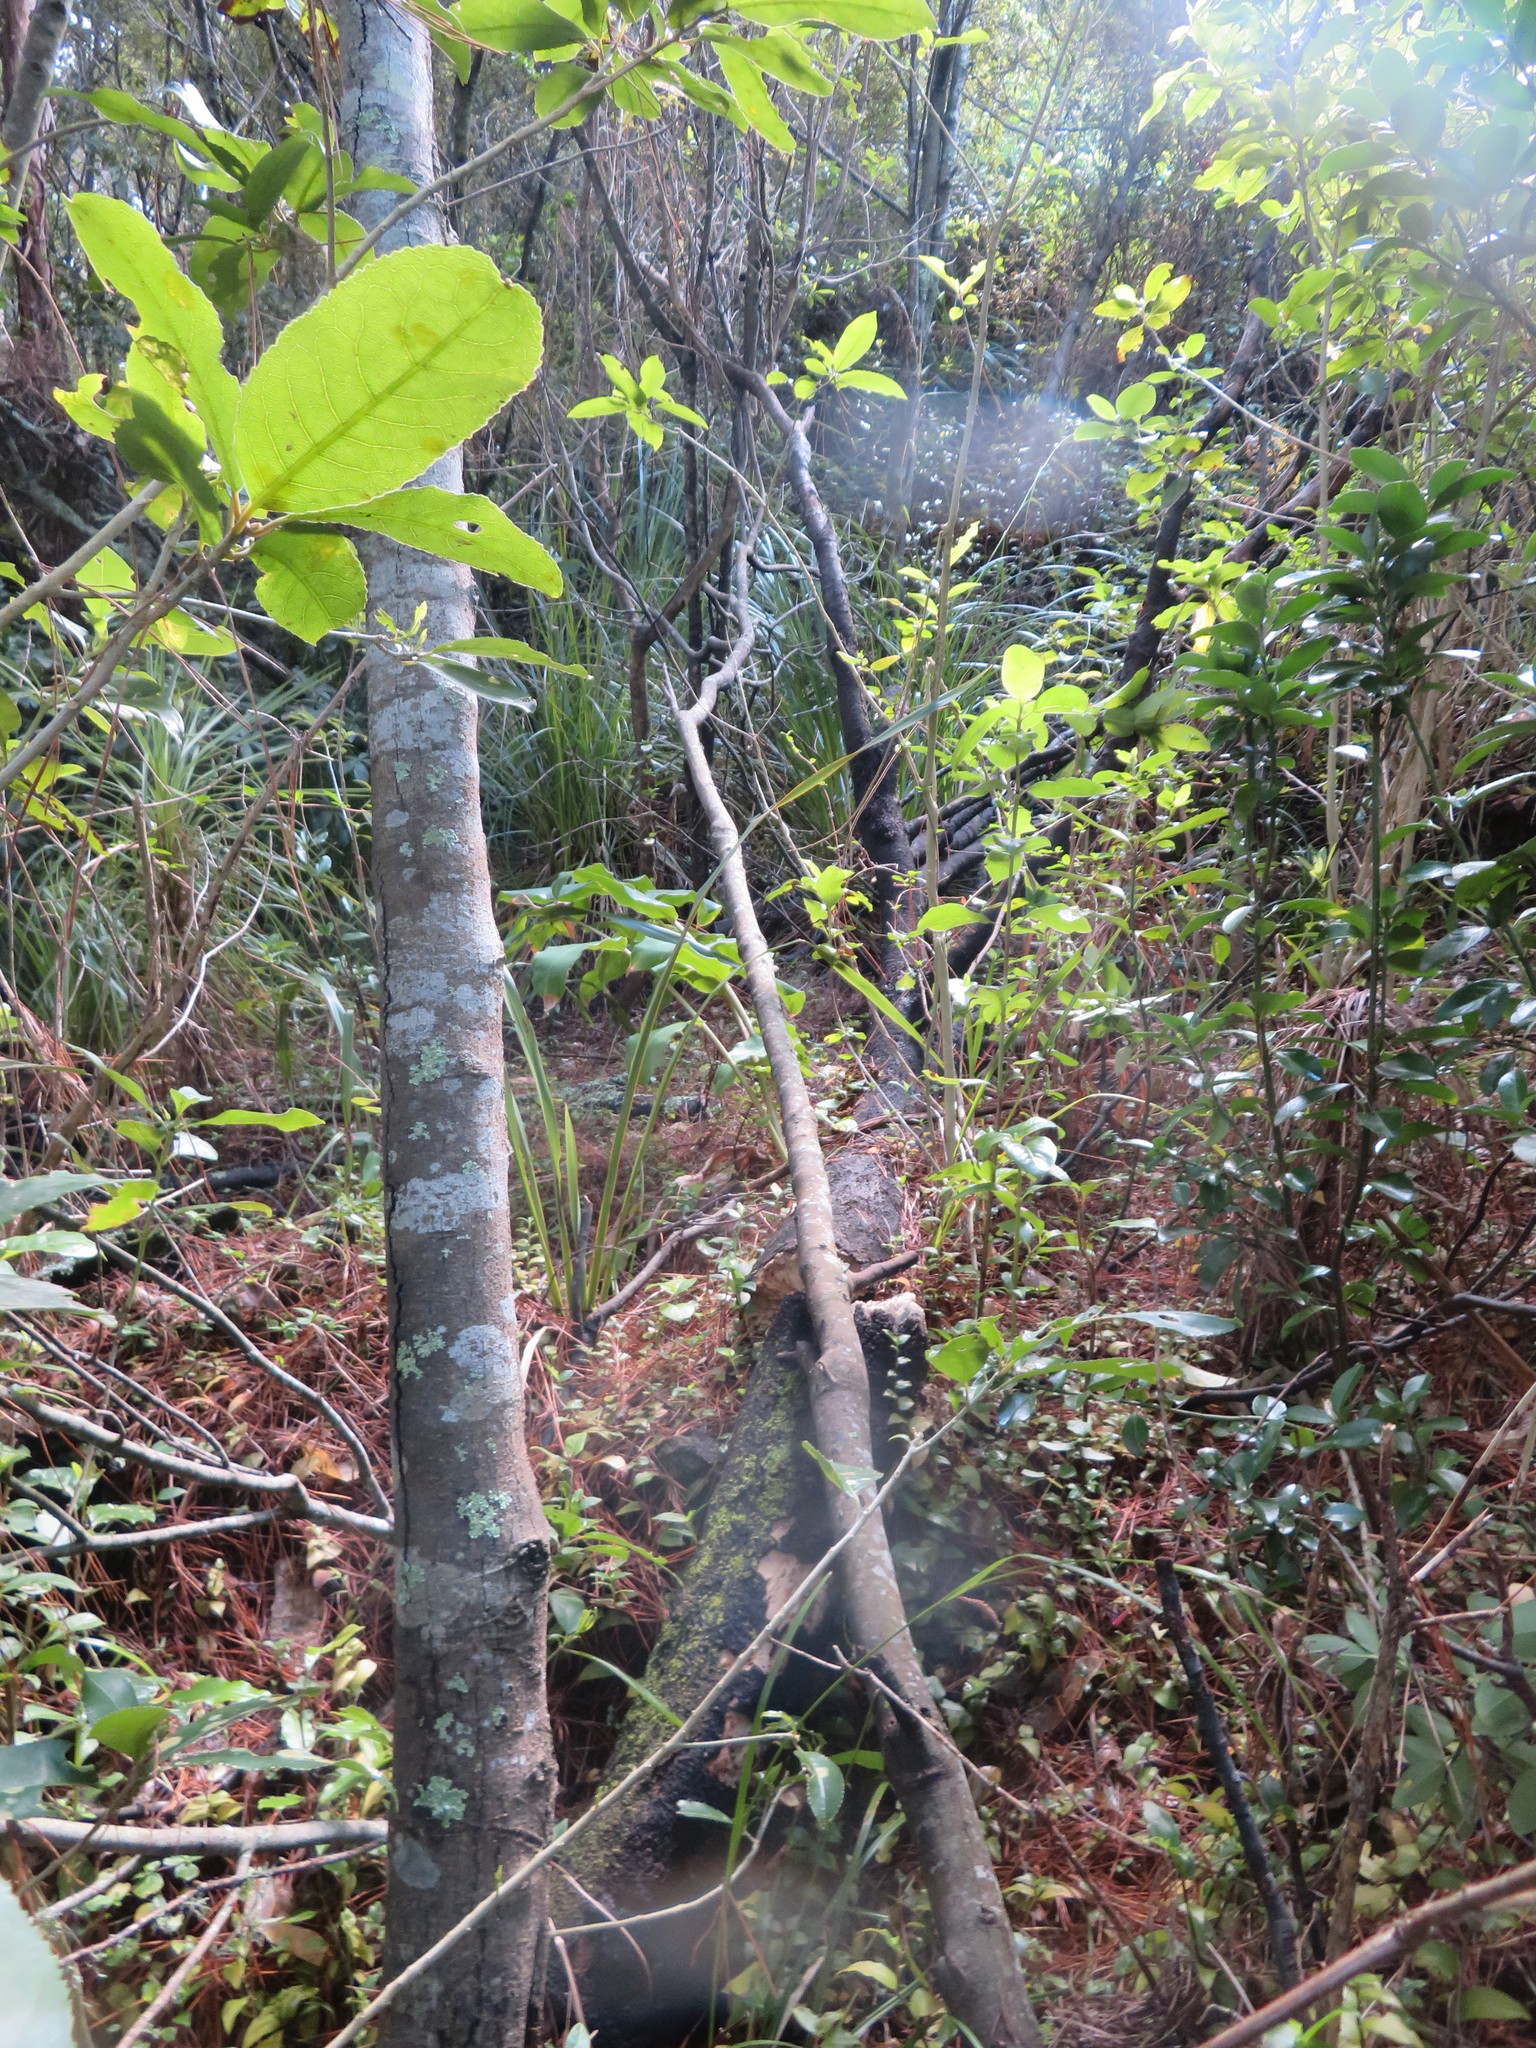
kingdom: Plantae
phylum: Tracheophyta
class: Liliopsida
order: Commelinales
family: Commelinaceae
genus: Tradescantia
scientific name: Tradescantia fluminensis
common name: Wandering-jew
